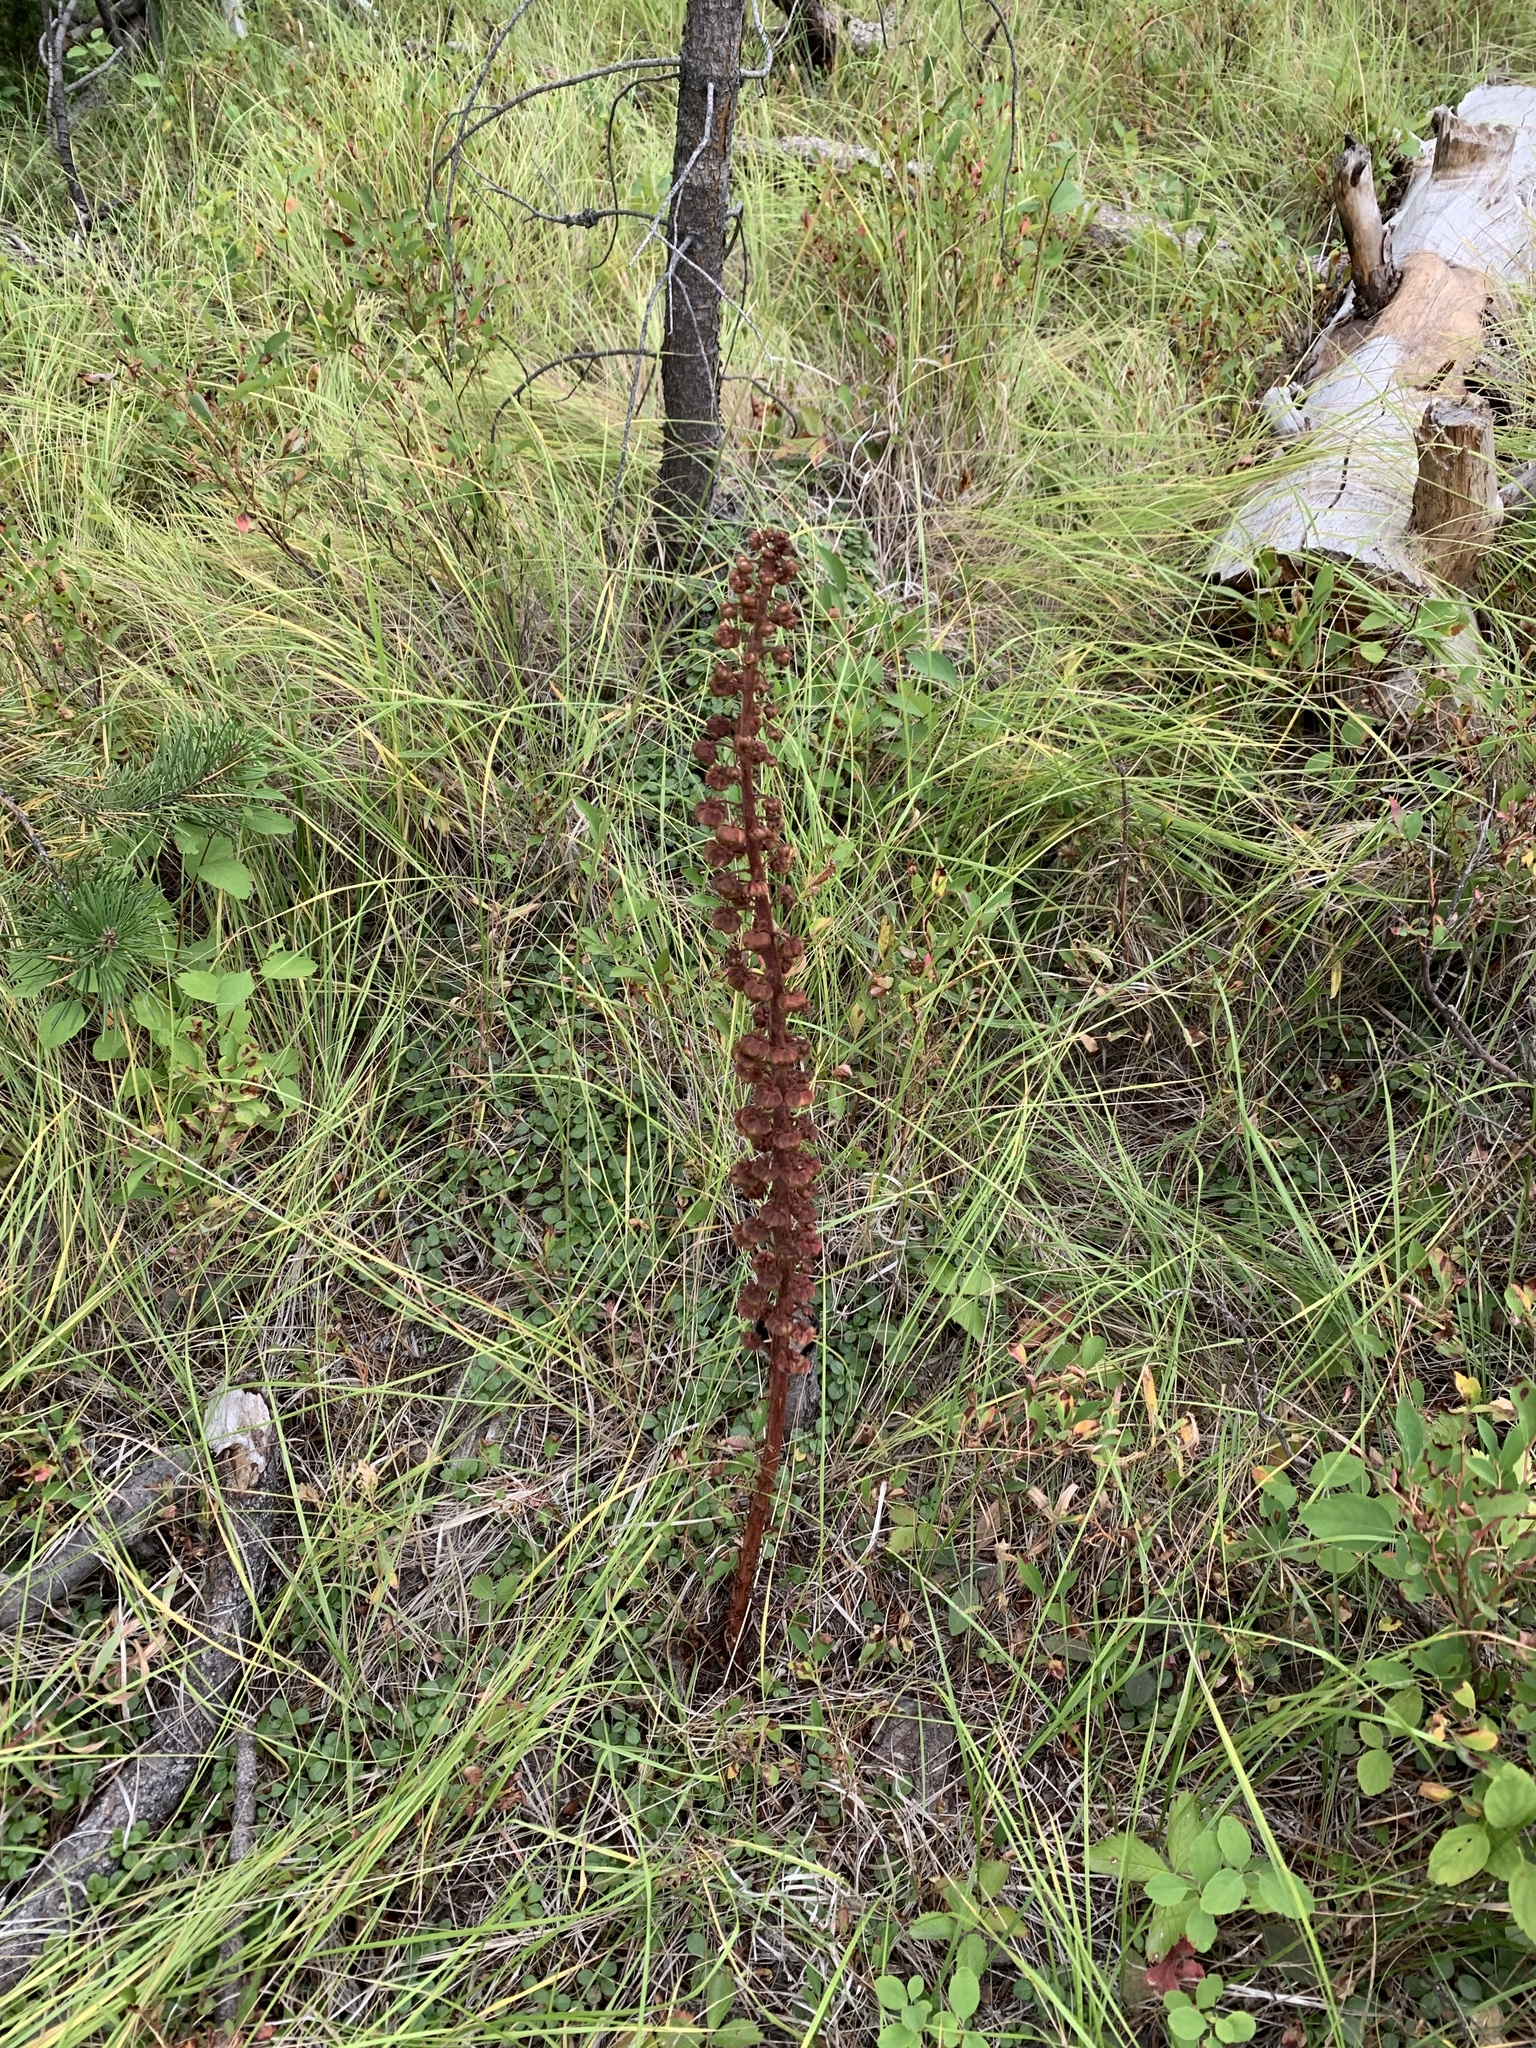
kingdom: Plantae
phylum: Tracheophyta
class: Magnoliopsida
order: Ericales
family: Ericaceae
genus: Pterospora
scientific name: Pterospora andromedea
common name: Giant bird's-nest
